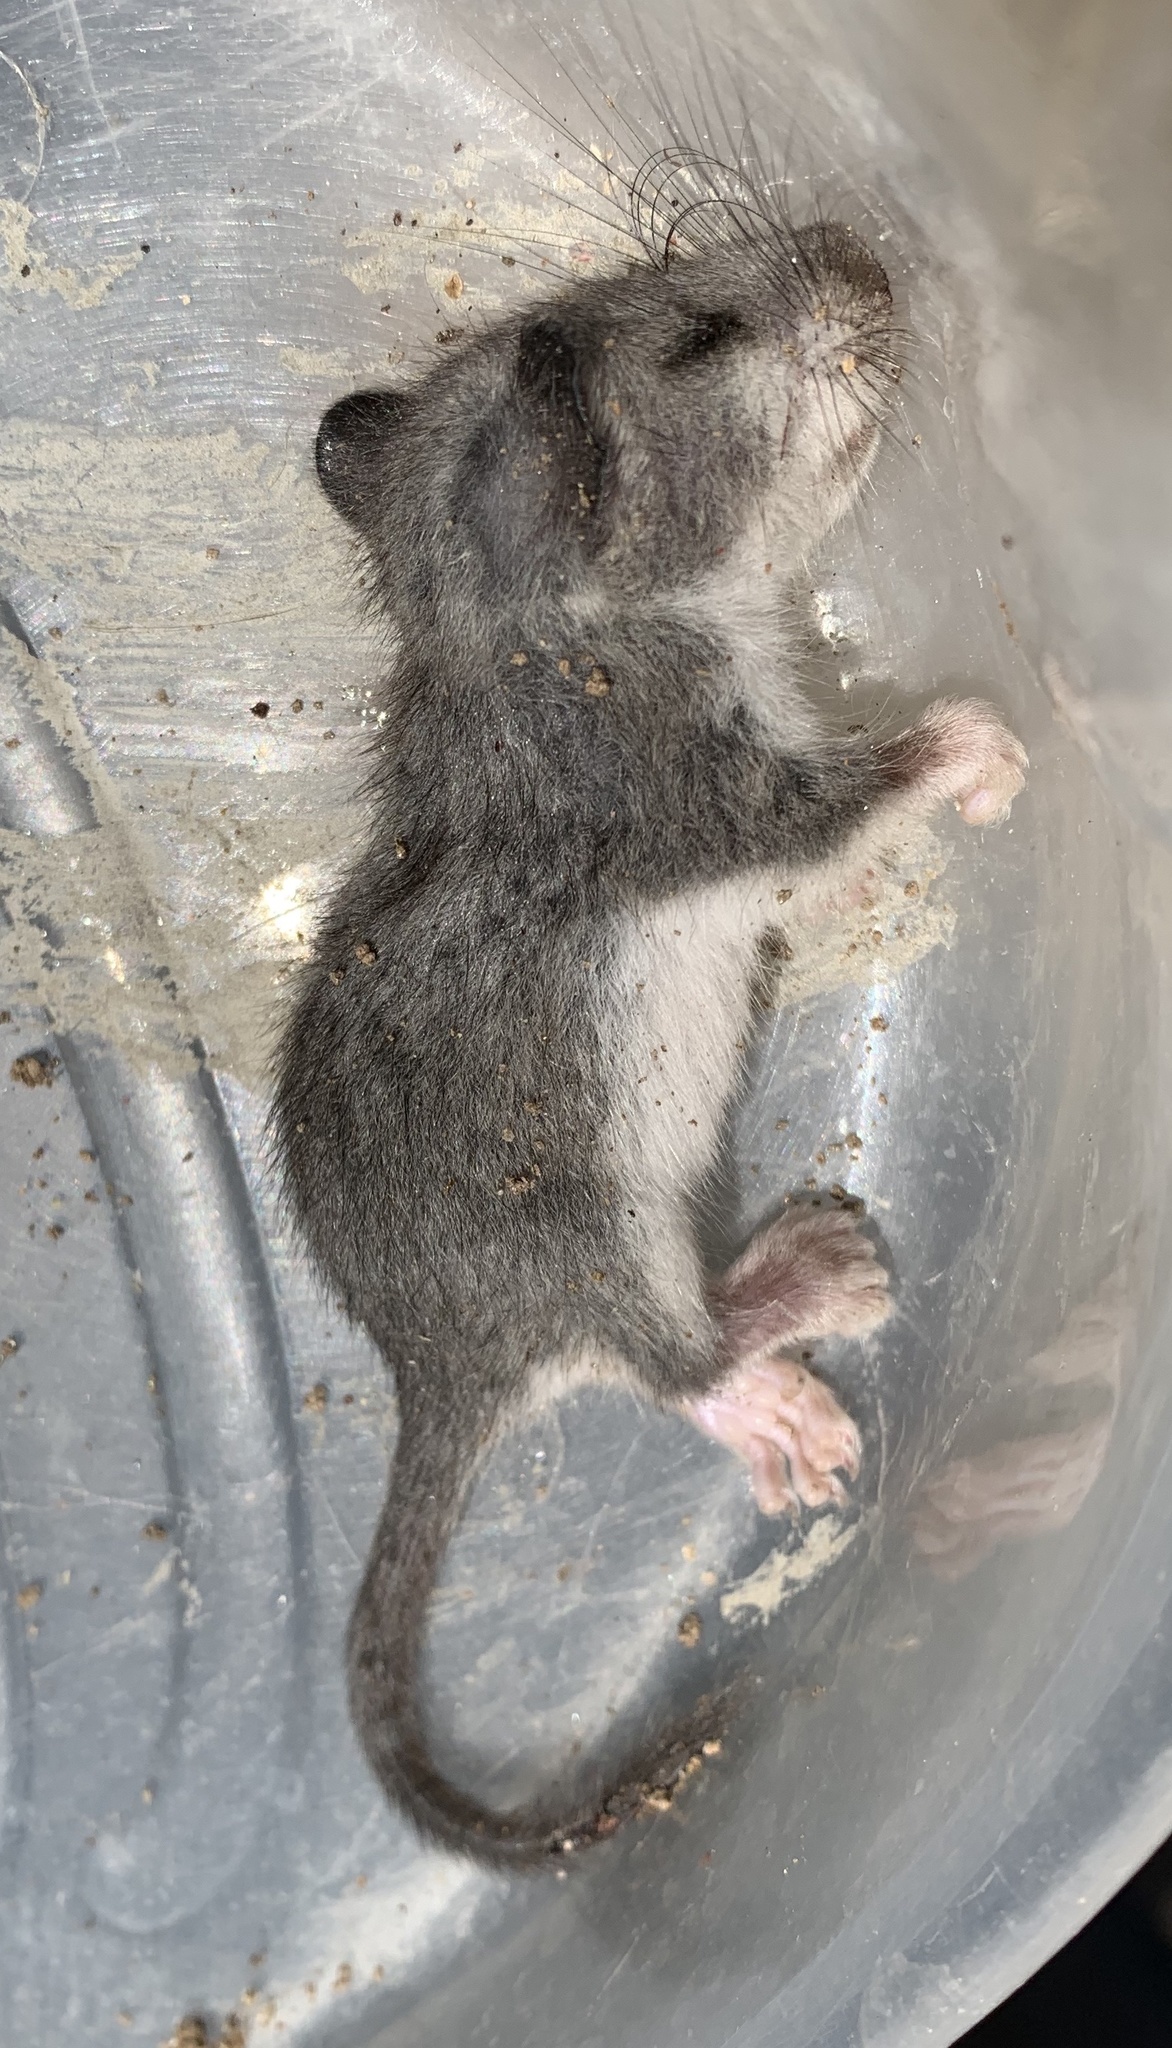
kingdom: Animalia
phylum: Chordata
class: Mammalia
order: Rodentia
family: Gliridae
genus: Glis
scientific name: Glis glis
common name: Fat dormouse
